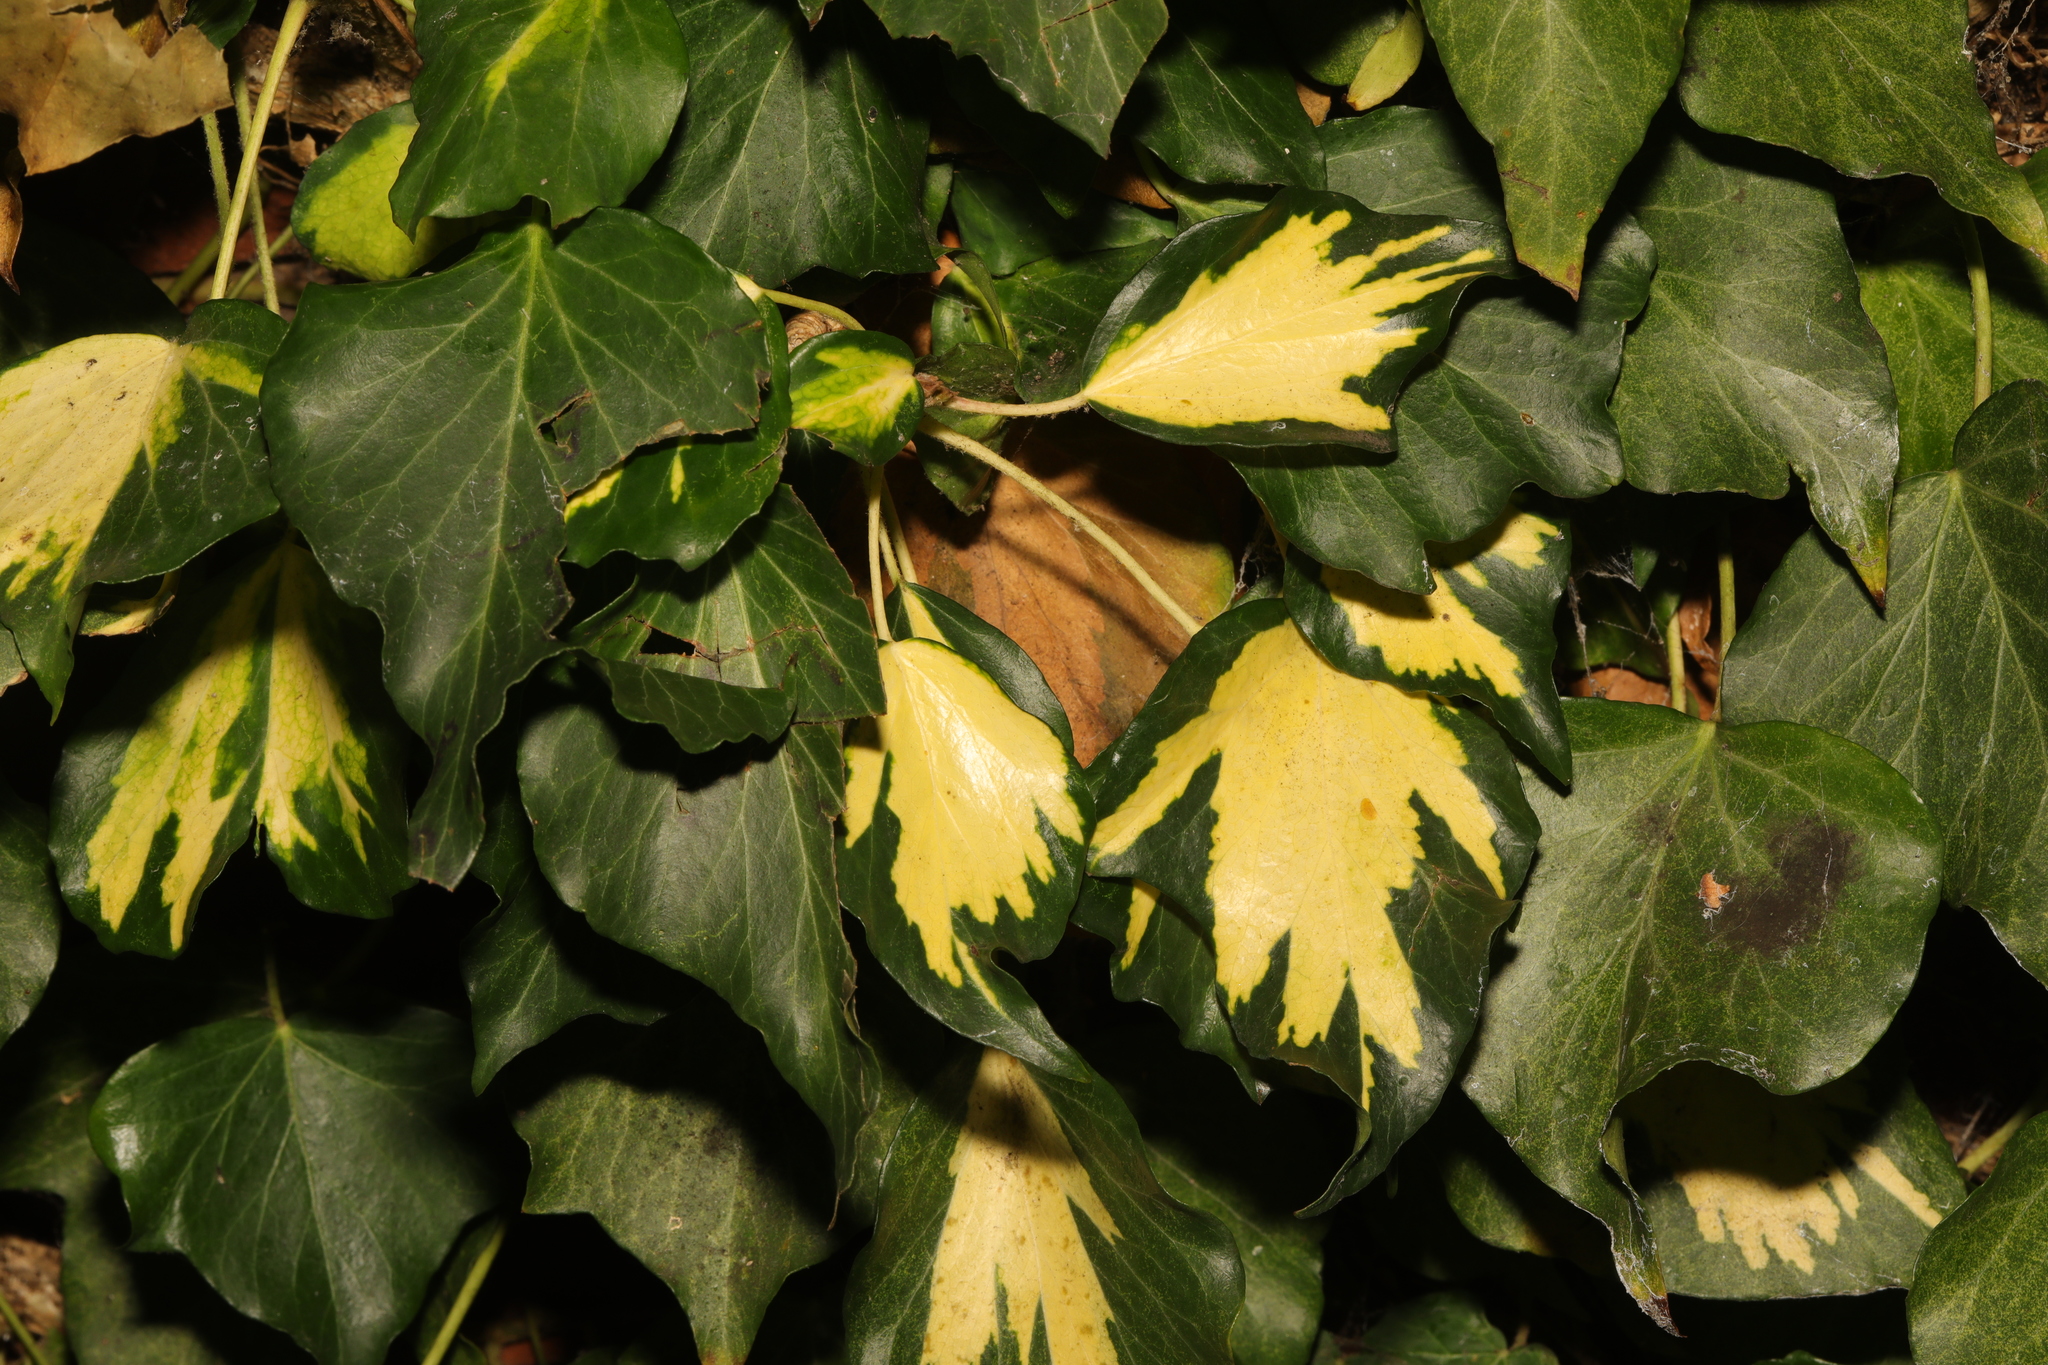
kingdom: Plantae
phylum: Tracheophyta
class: Magnoliopsida
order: Apiales
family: Araliaceae
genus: Hedera
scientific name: Hedera colchica
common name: Persian ivy
